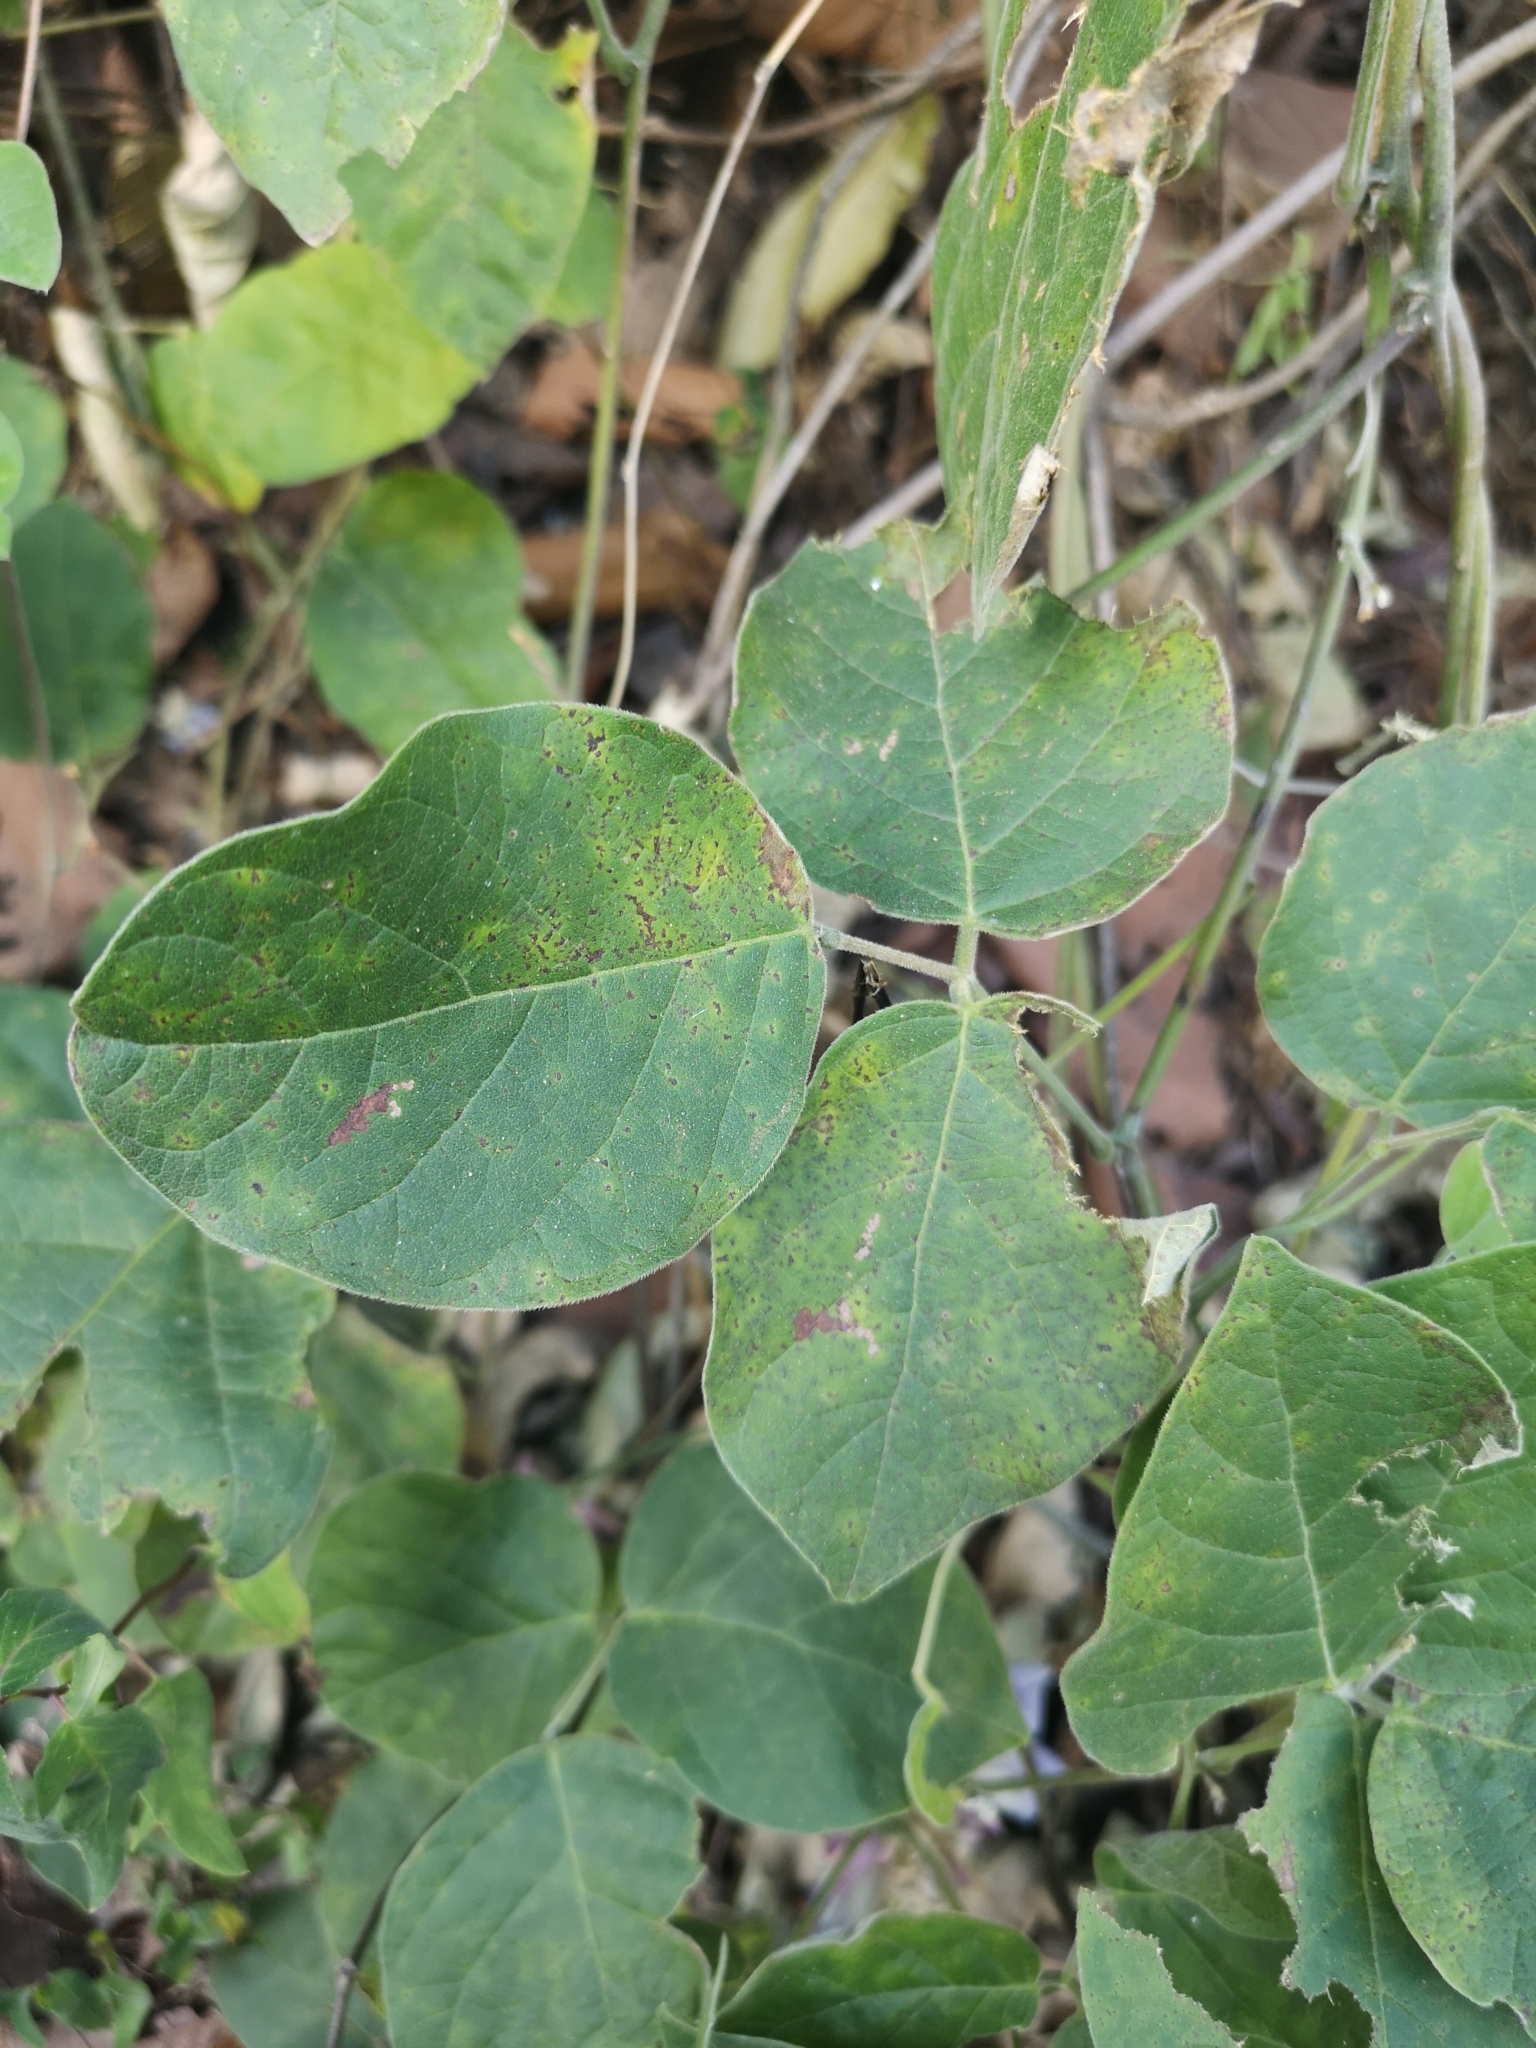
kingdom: Plantae
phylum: Tracheophyta
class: Magnoliopsida
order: Fabales
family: Fabaceae
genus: Canavalia
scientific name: Canavalia septentrionalis
